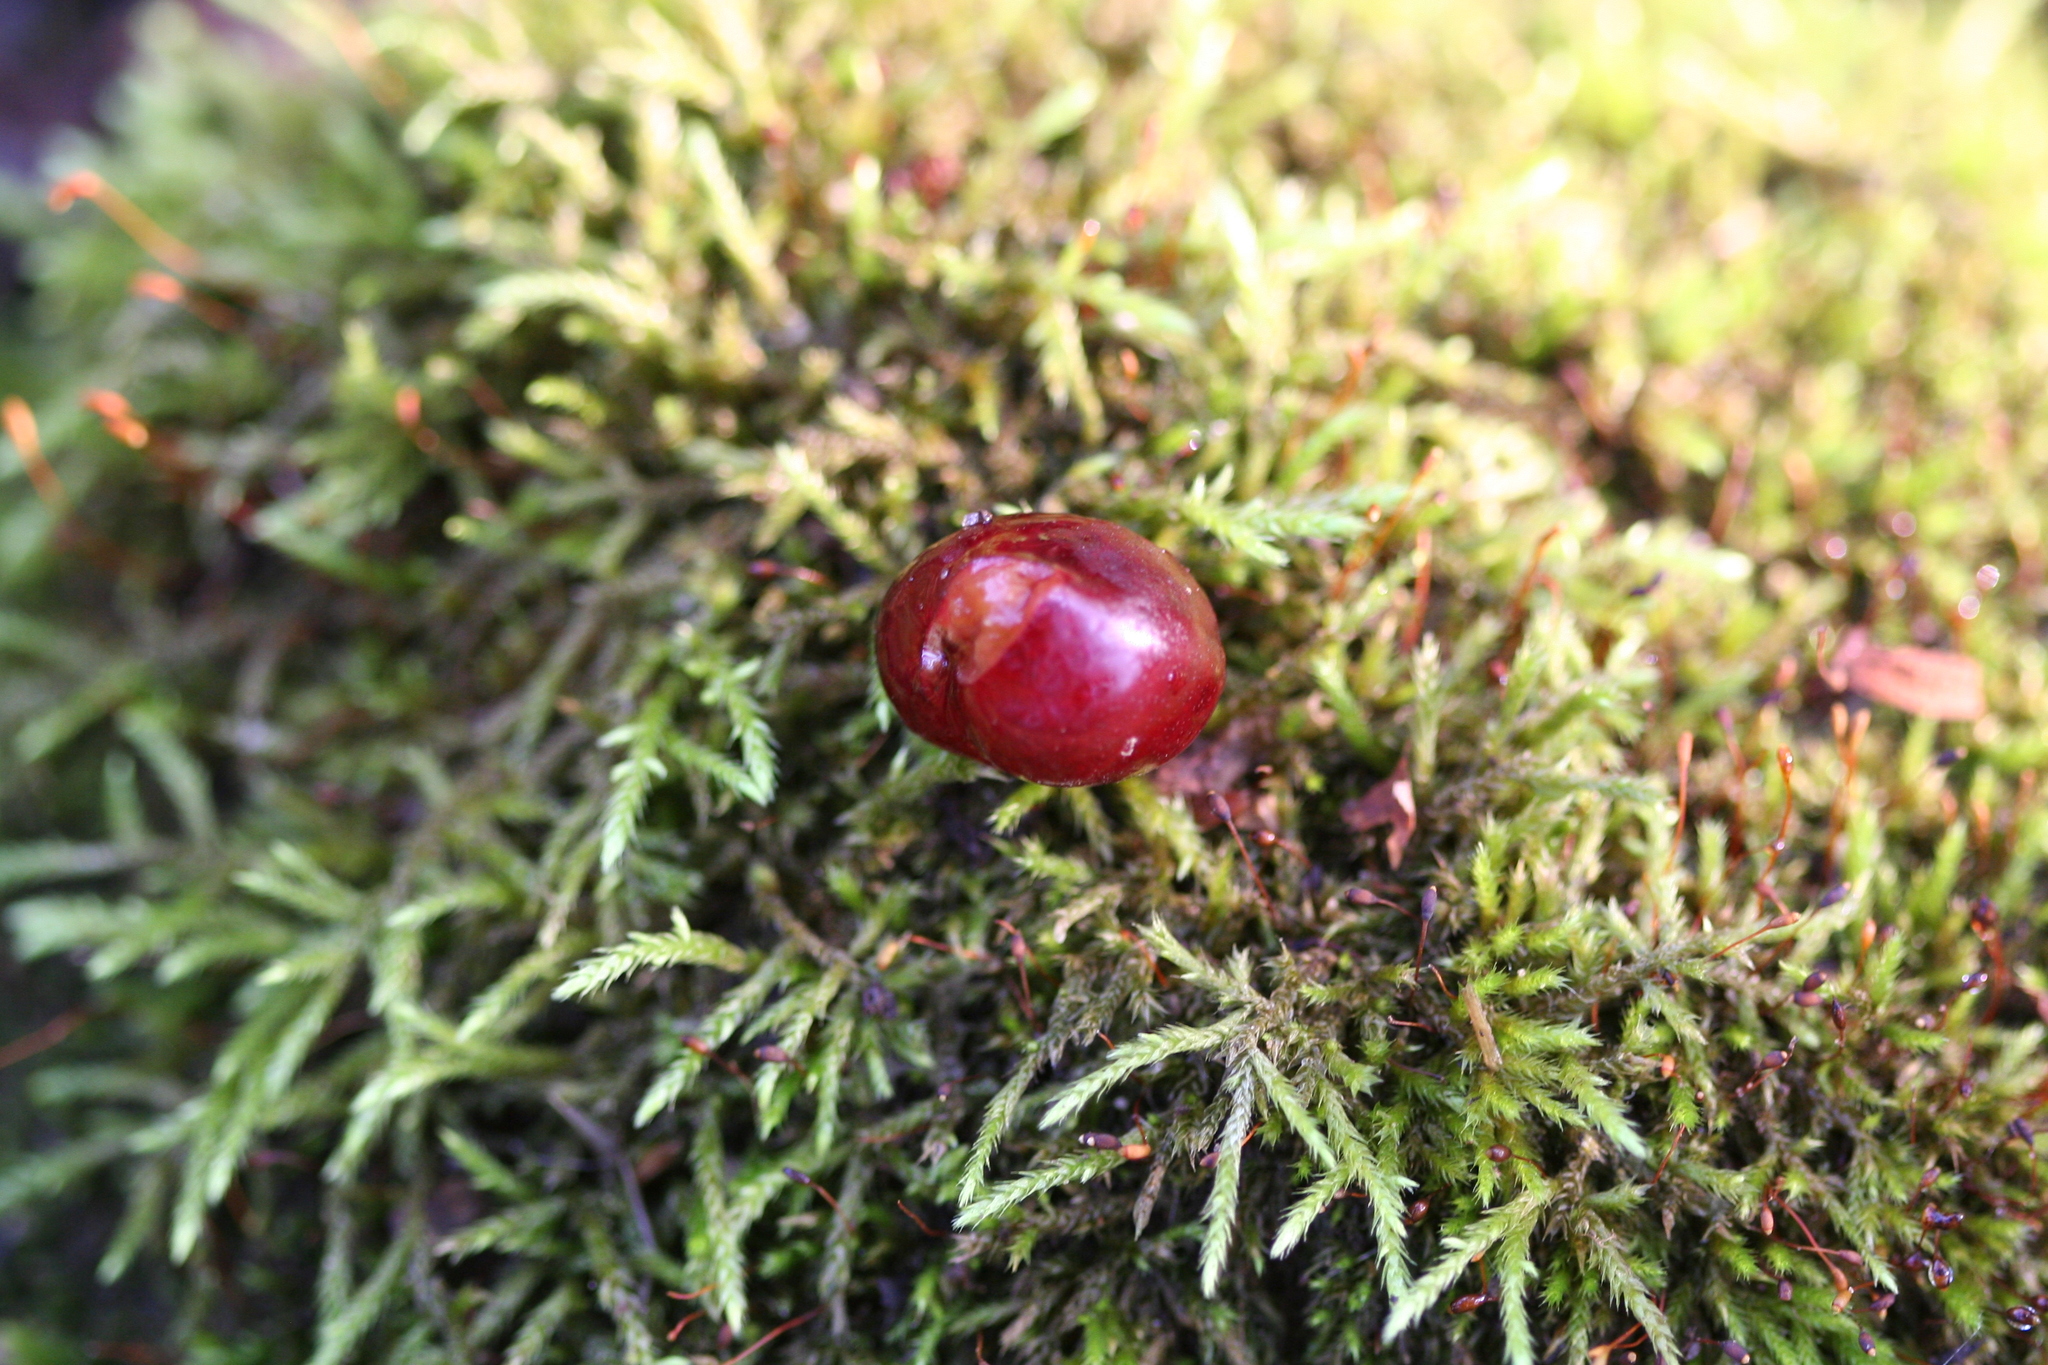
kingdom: Plantae
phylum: Tracheophyta
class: Magnoliopsida
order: Rosales
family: Rosaceae
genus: Prunus
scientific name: Prunus avium
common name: Sweet cherry
